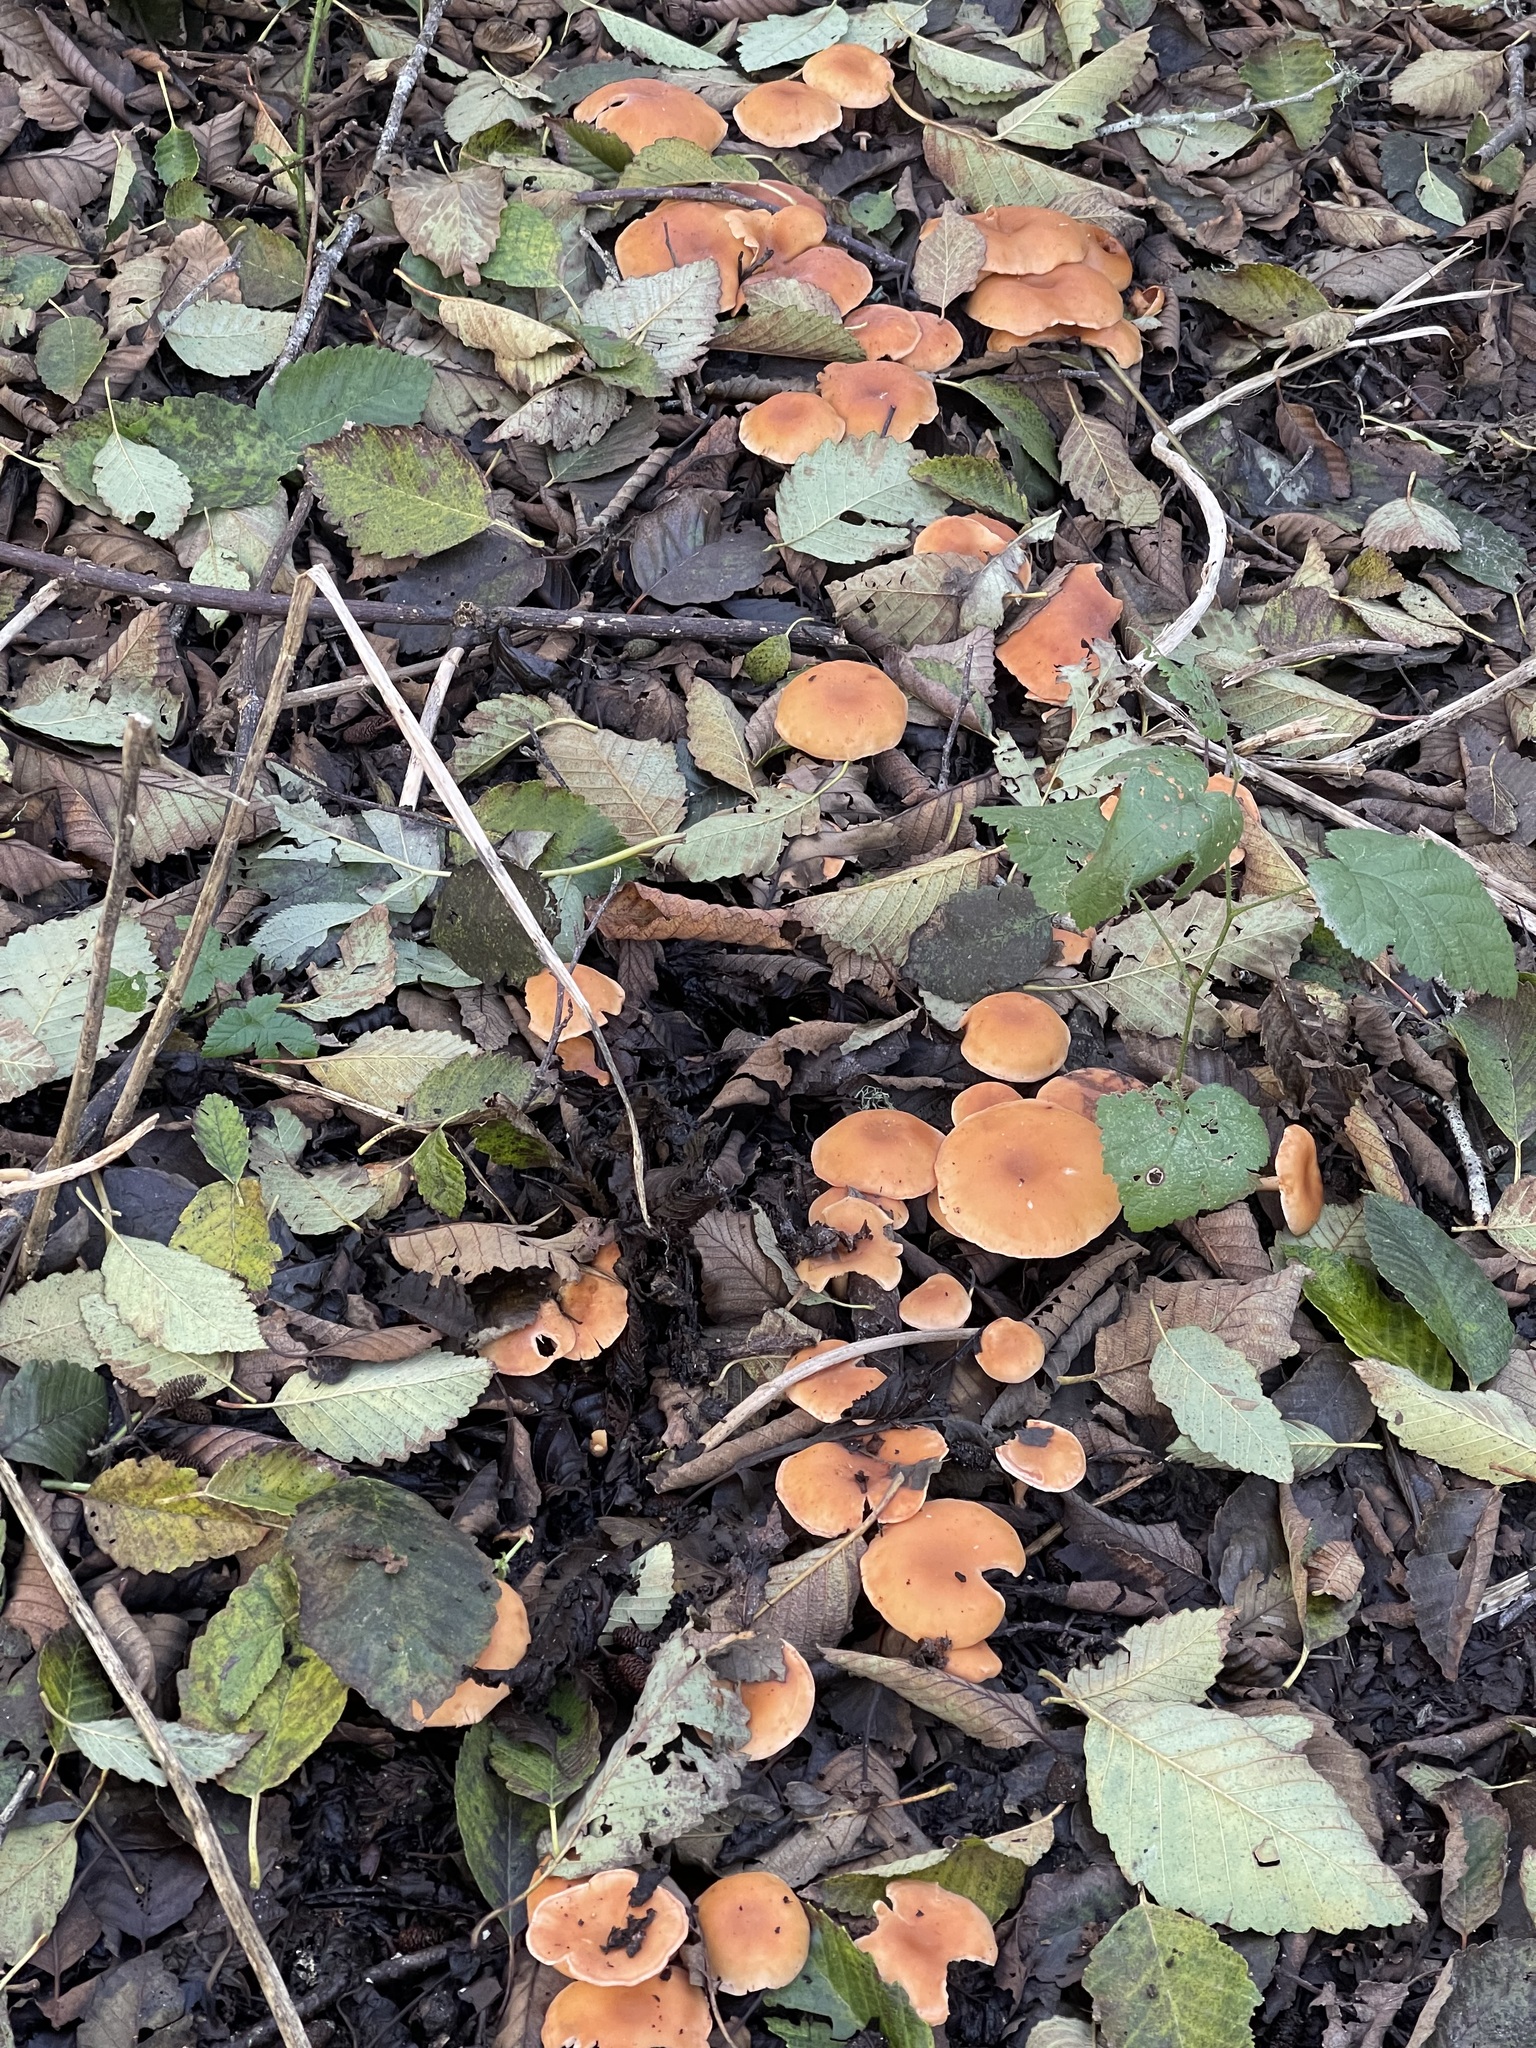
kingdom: Fungi
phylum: Basidiomycota
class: Agaricomycetes
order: Agaricales
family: Tricholomataceae
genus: Paralepista
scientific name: Paralepista flaccida
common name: Tawny funnel cap
